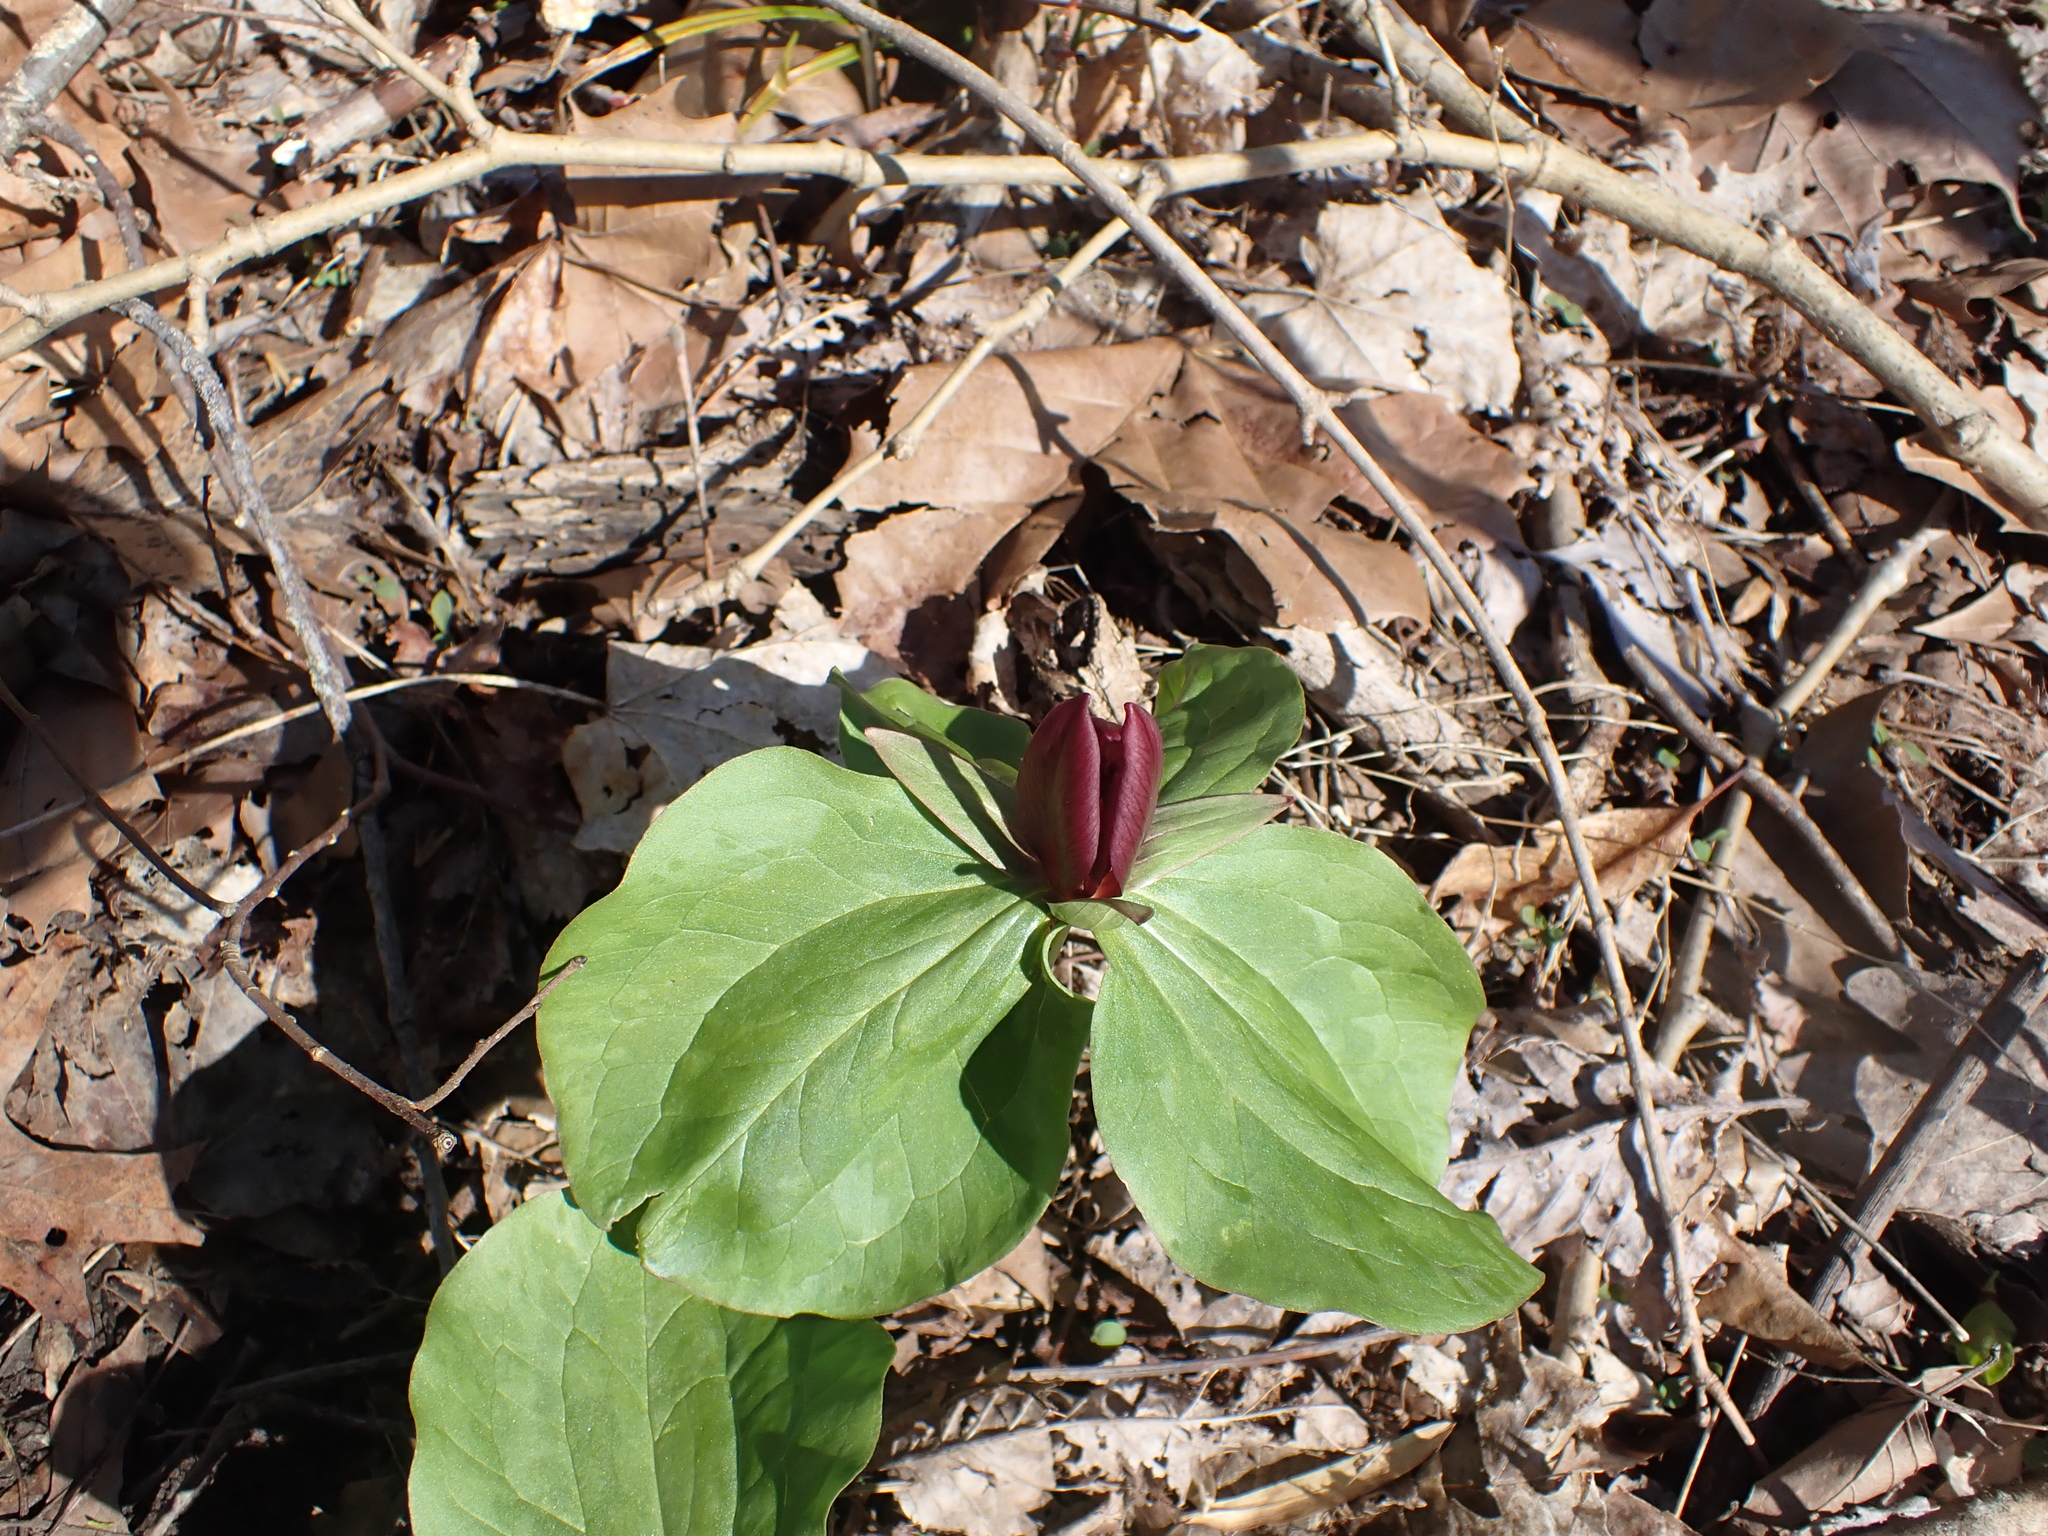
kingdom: Plantae
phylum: Tracheophyta
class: Liliopsida
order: Liliales
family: Melanthiaceae
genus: Trillium
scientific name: Trillium sessile
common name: Sessile trillium
